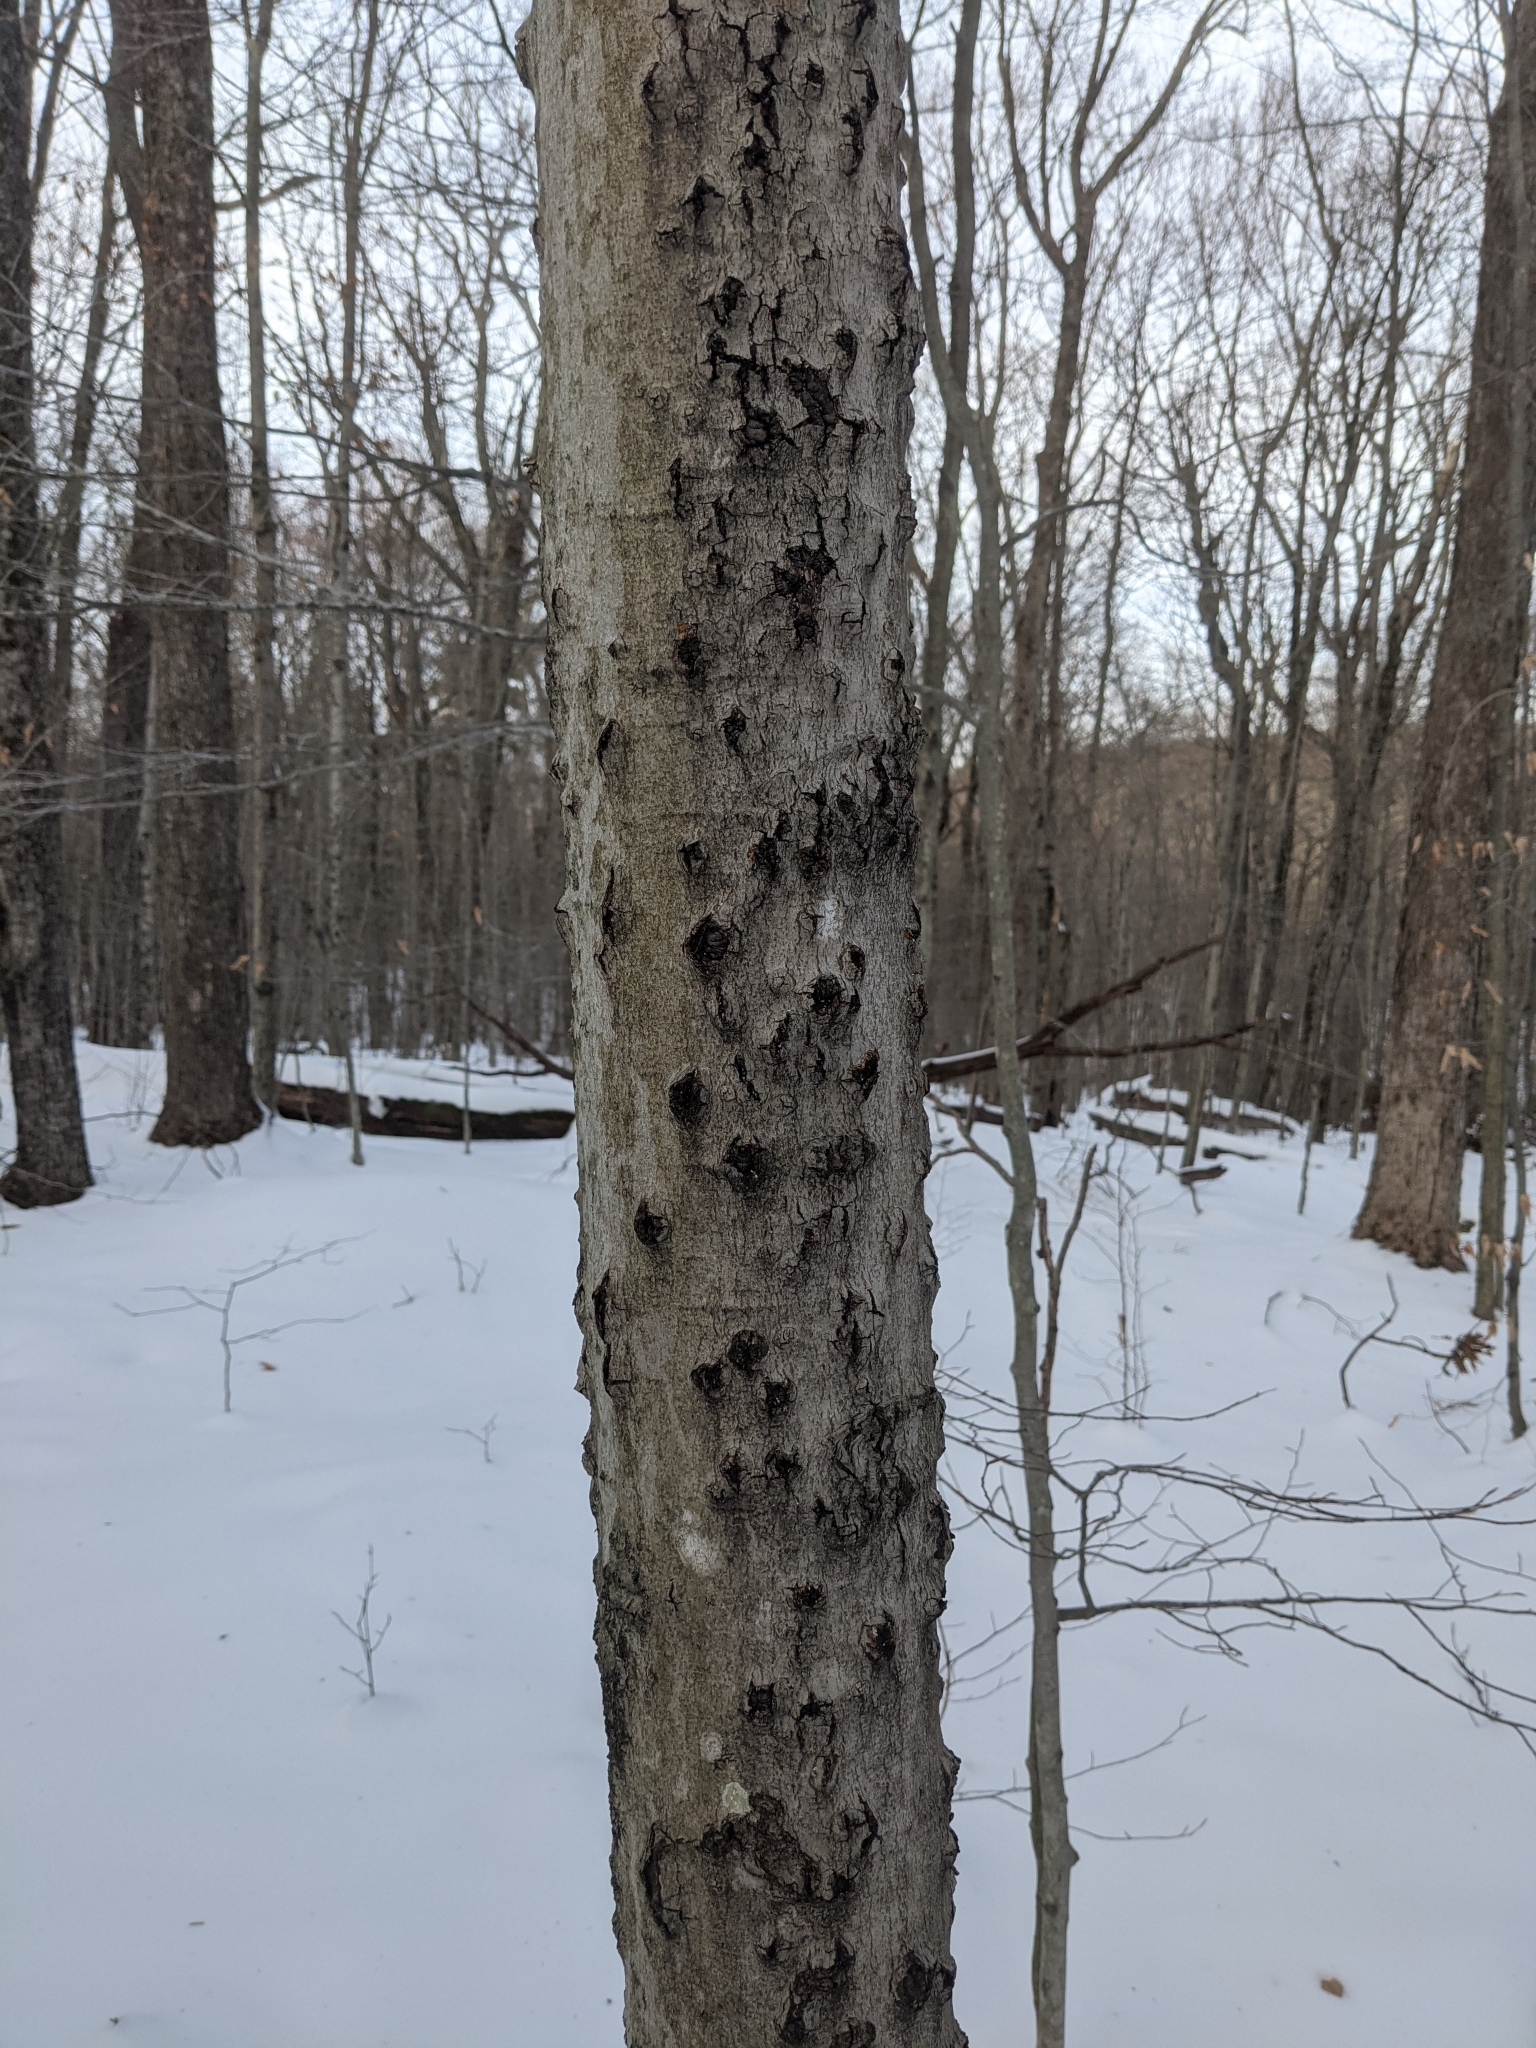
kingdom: Animalia
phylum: Arthropoda
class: Insecta
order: Hemiptera
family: Eriococcidae
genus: Cryptococcus
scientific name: Cryptococcus fagisuga
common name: Beech scale
